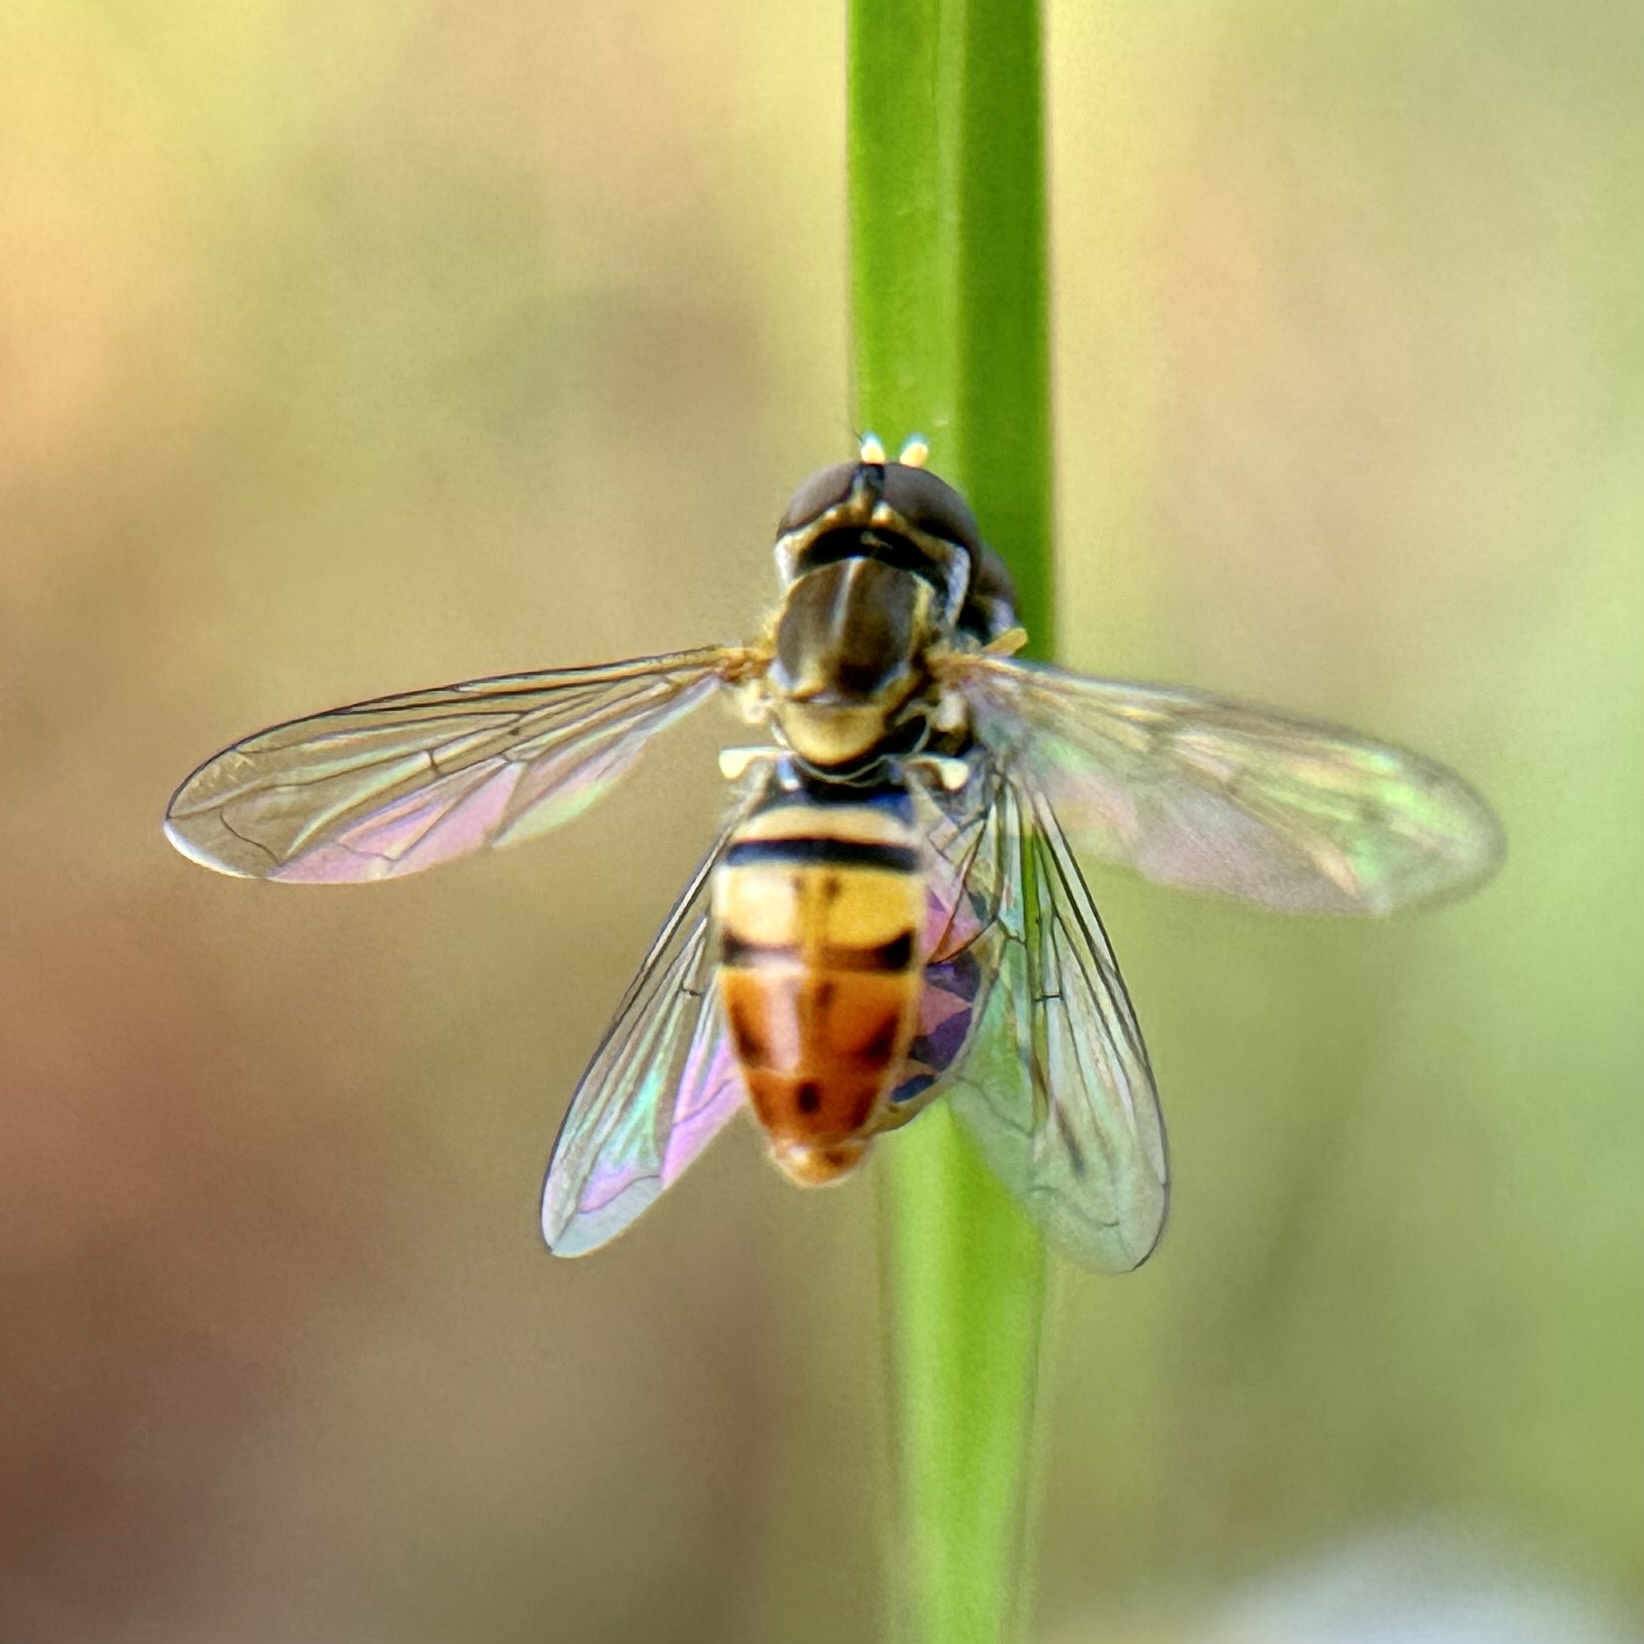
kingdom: Animalia
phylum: Arthropoda
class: Insecta
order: Diptera
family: Syrphidae
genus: Toxomerus
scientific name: Toxomerus marginatus
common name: Syrphid fly
